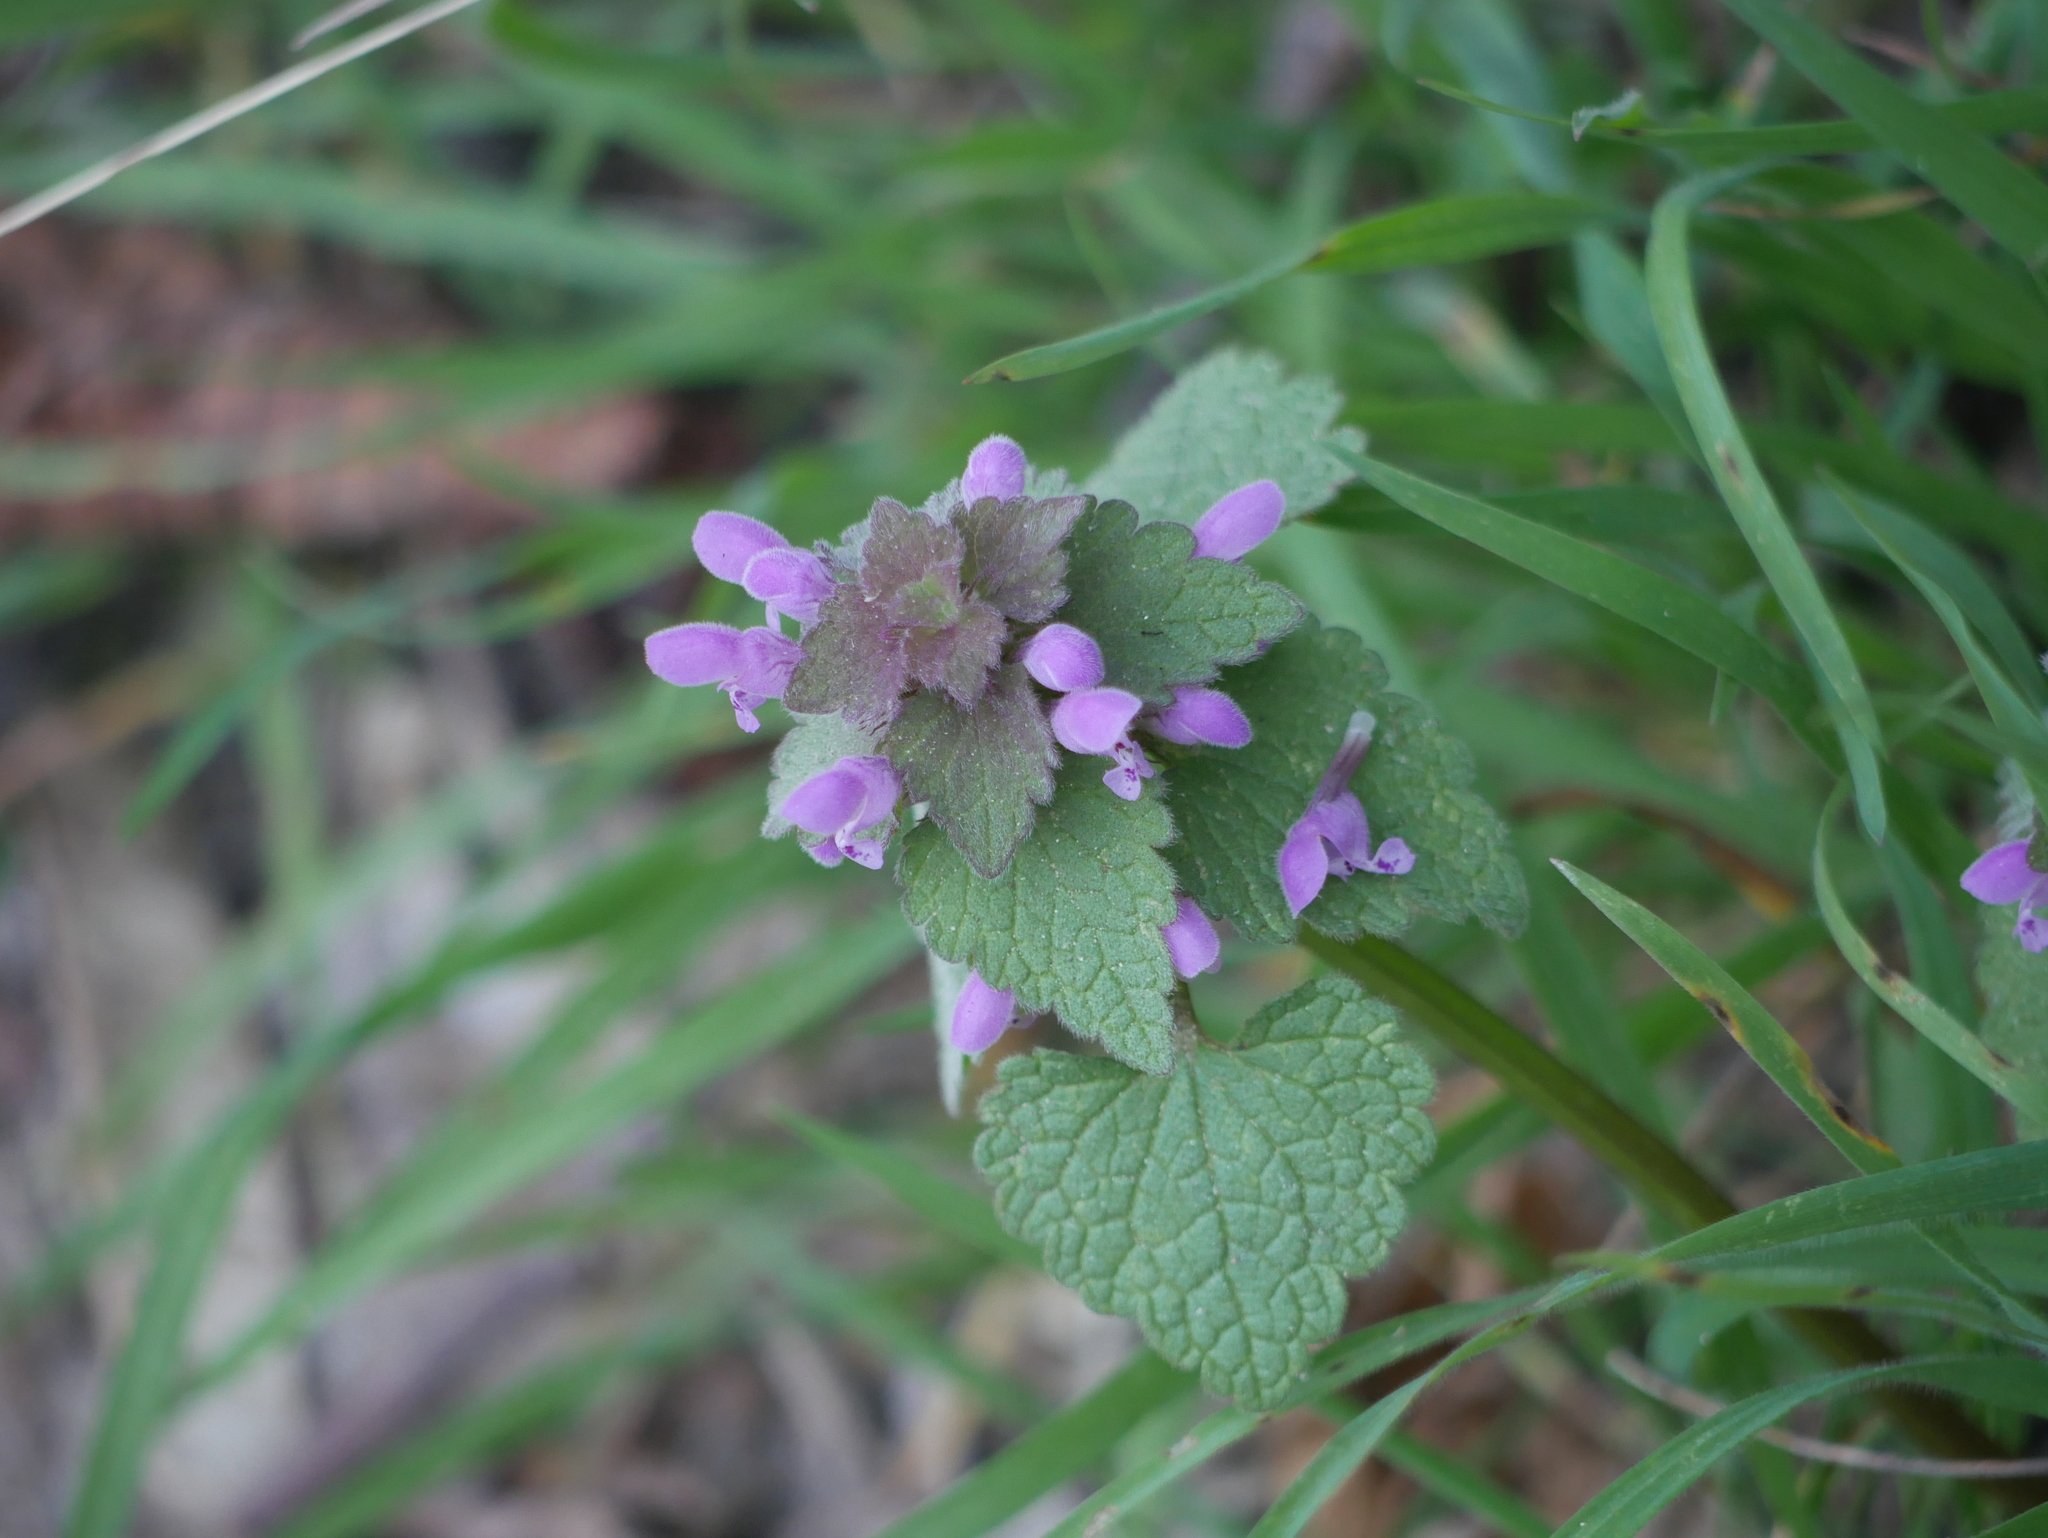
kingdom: Plantae
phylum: Tracheophyta
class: Magnoliopsida
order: Lamiales
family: Lamiaceae
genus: Lamium
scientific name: Lamium purpureum
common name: Red dead-nettle
